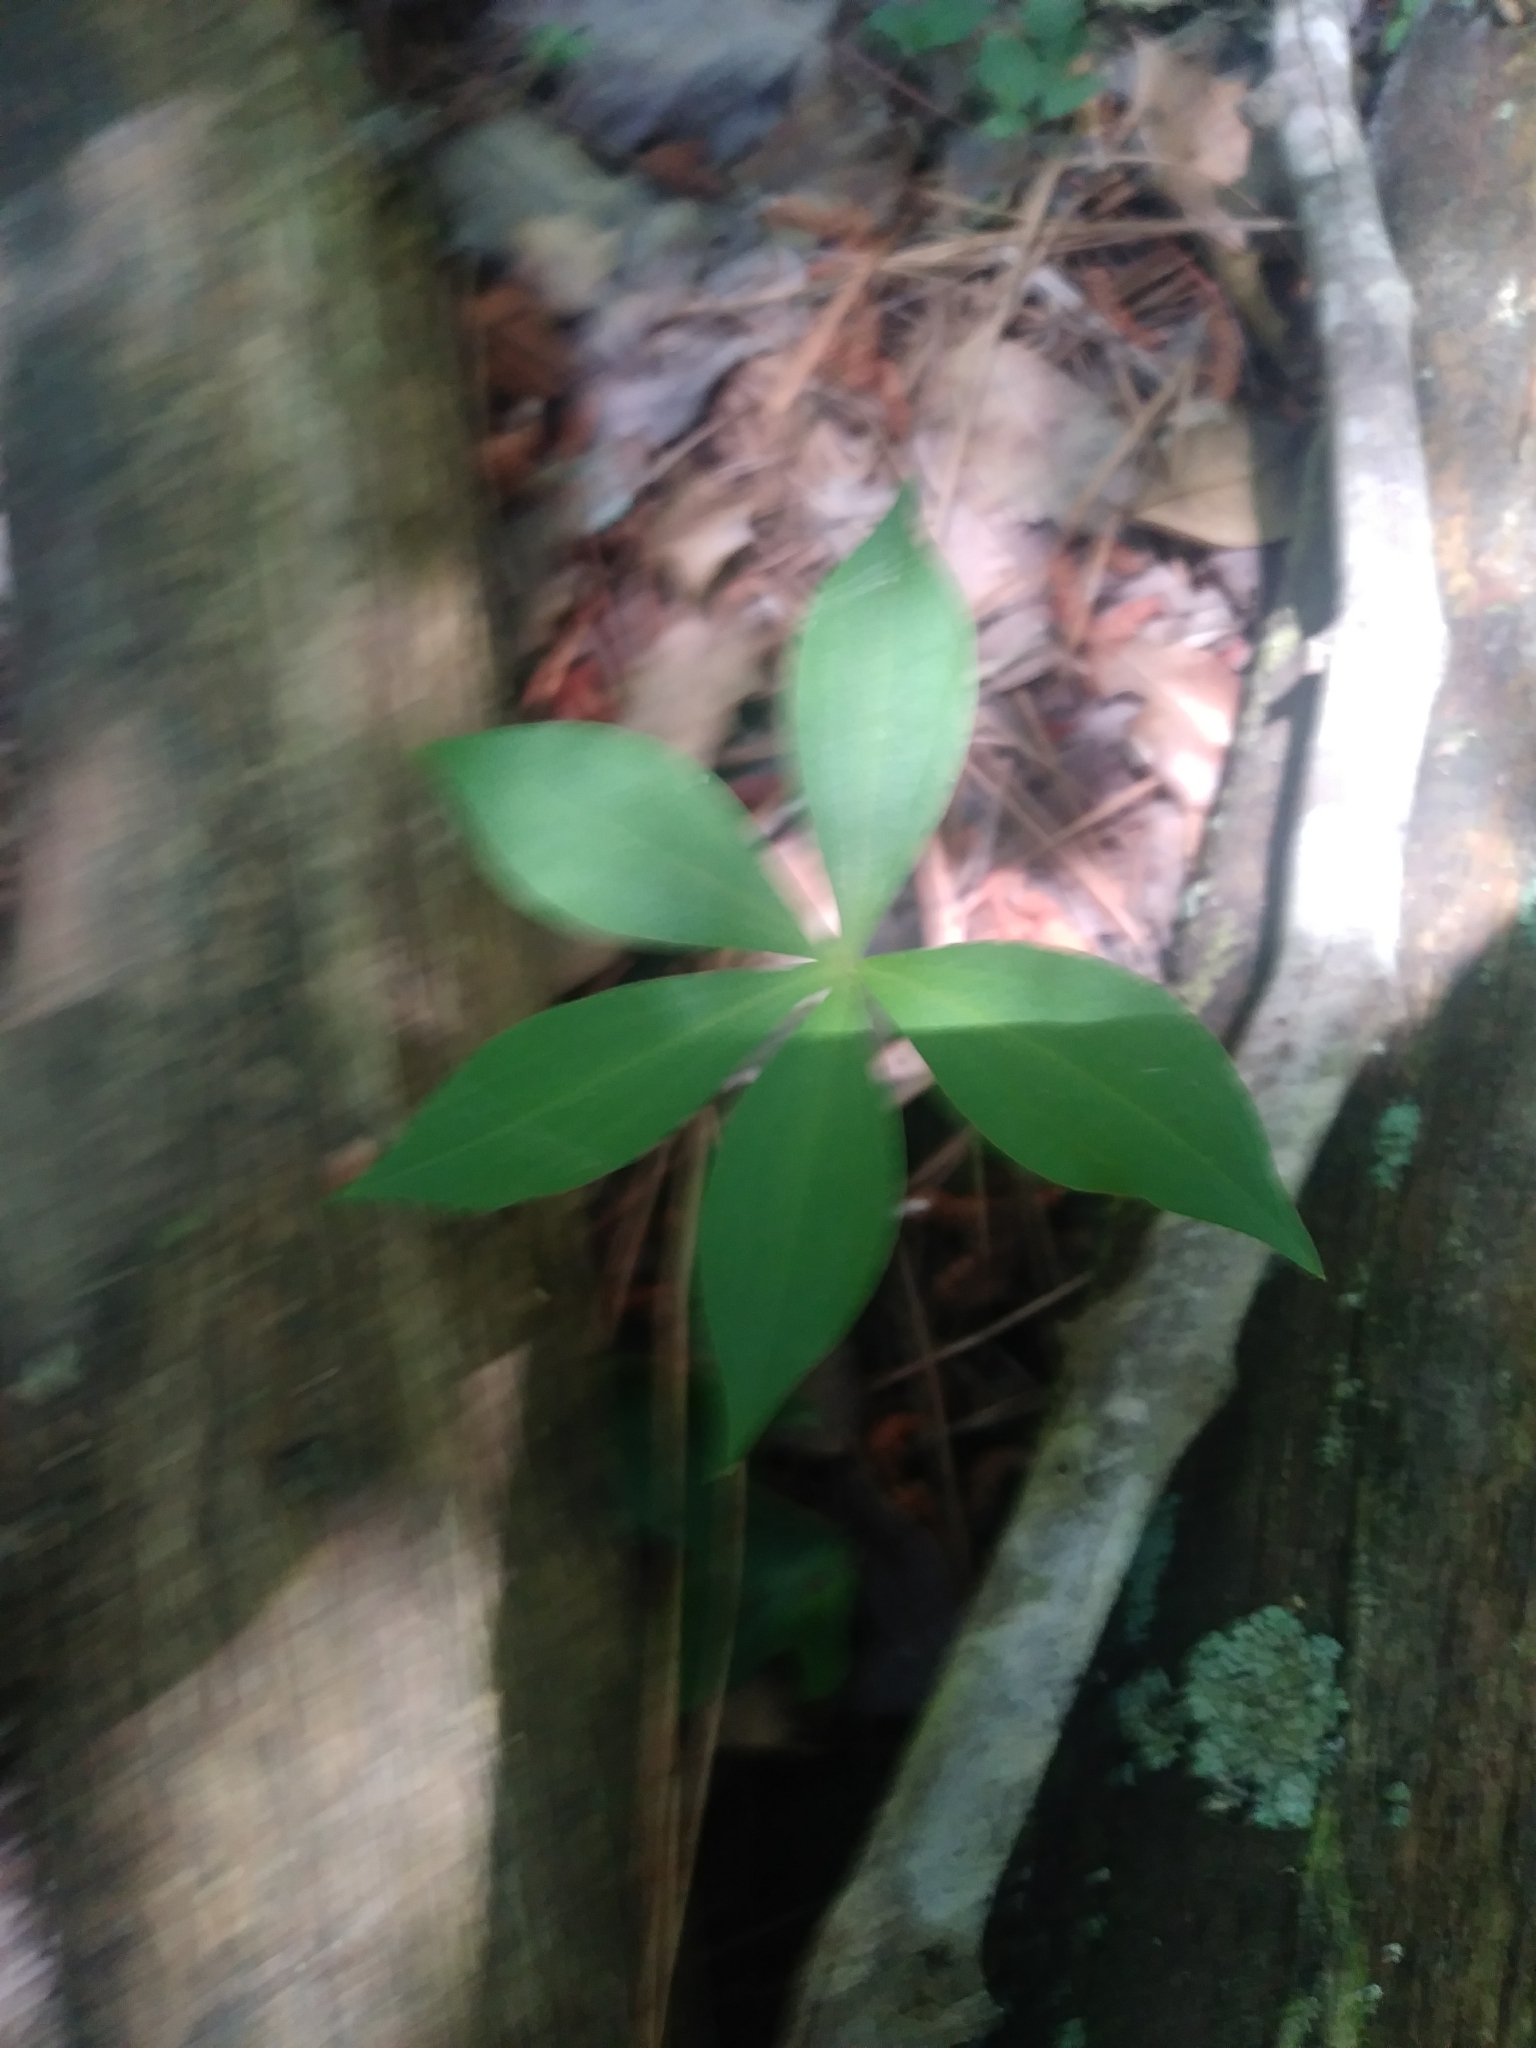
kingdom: Plantae
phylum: Tracheophyta
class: Liliopsida
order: Liliales
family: Liliaceae
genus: Medeola
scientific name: Medeola virginiana
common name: Indian cucumber-root
